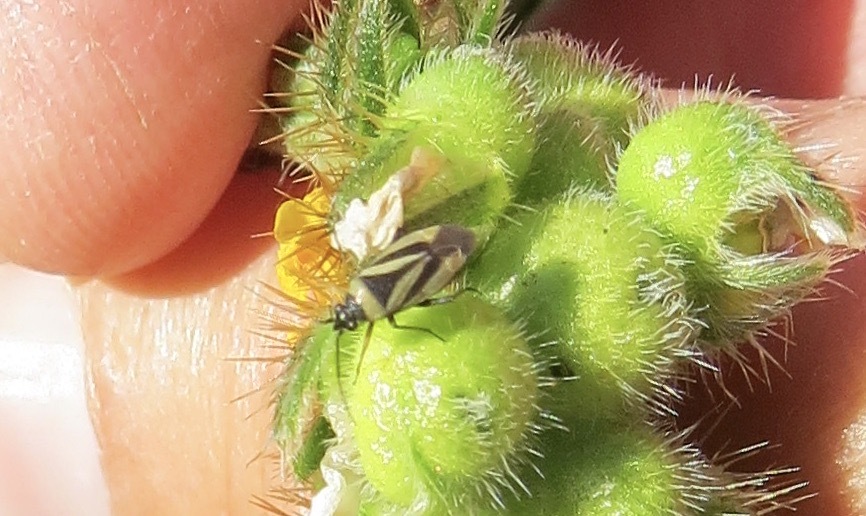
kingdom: Animalia
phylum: Arthropoda
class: Insecta
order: Hemiptera
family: Miridae
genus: Plagiognathus
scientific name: Plagiognathus moerens
